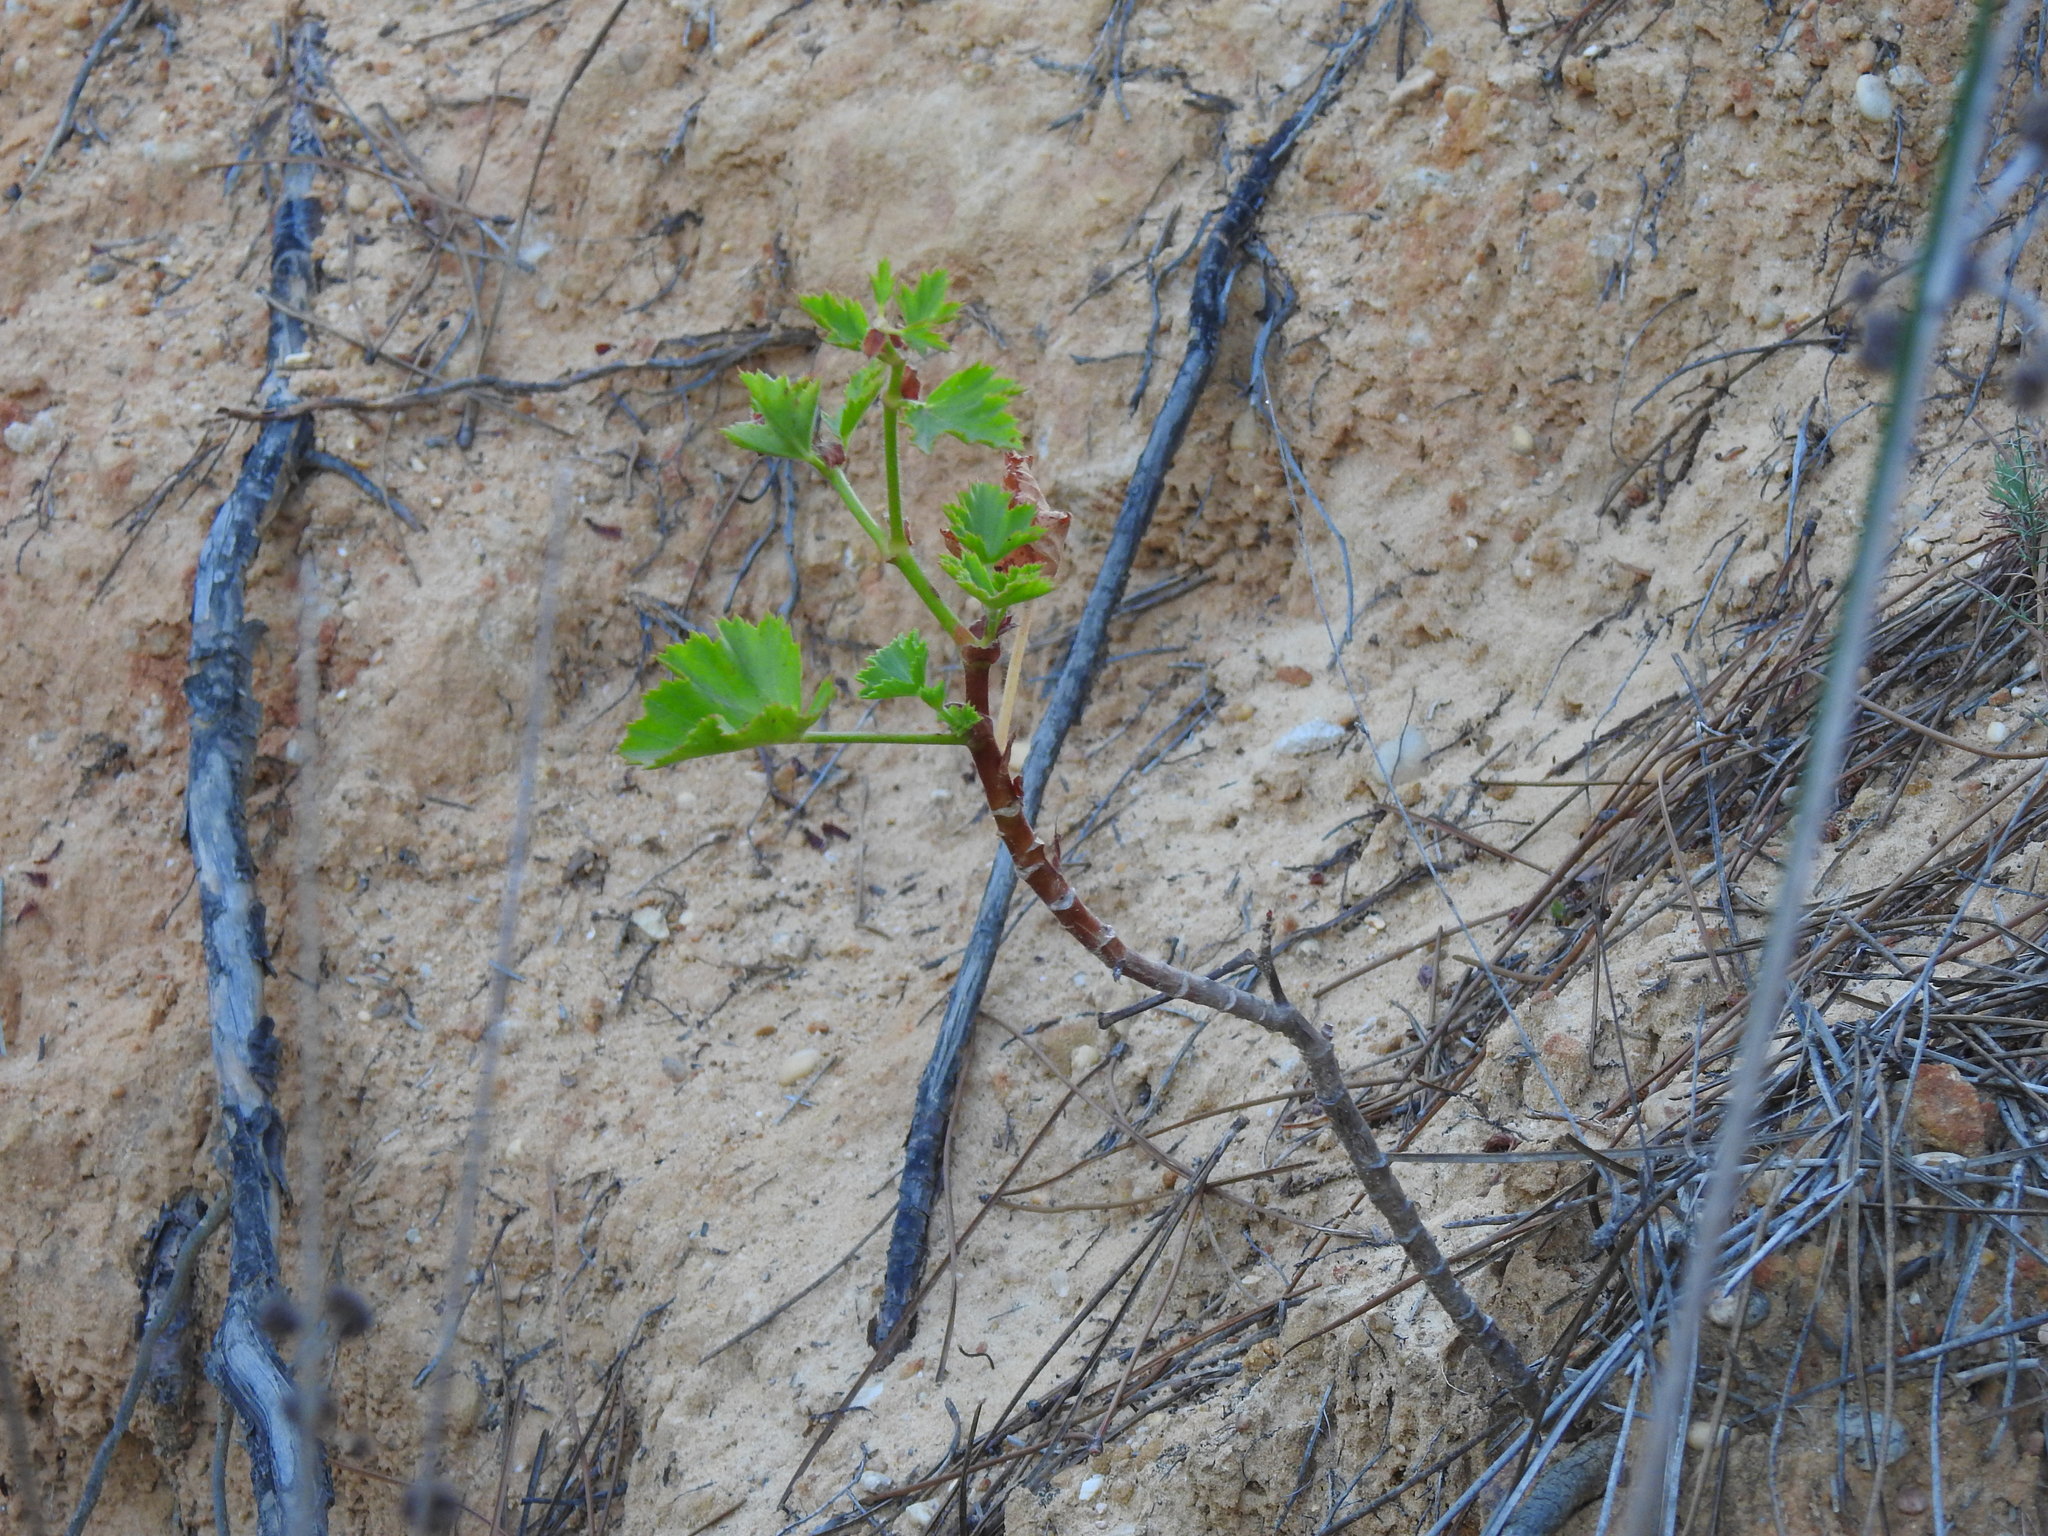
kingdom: Plantae
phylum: Tracheophyta
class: Magnoliopsida
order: Geraniales
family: Geraniaceae
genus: Pelargonium
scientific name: Pelargonium cucullatum
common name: Tree pelargonium
